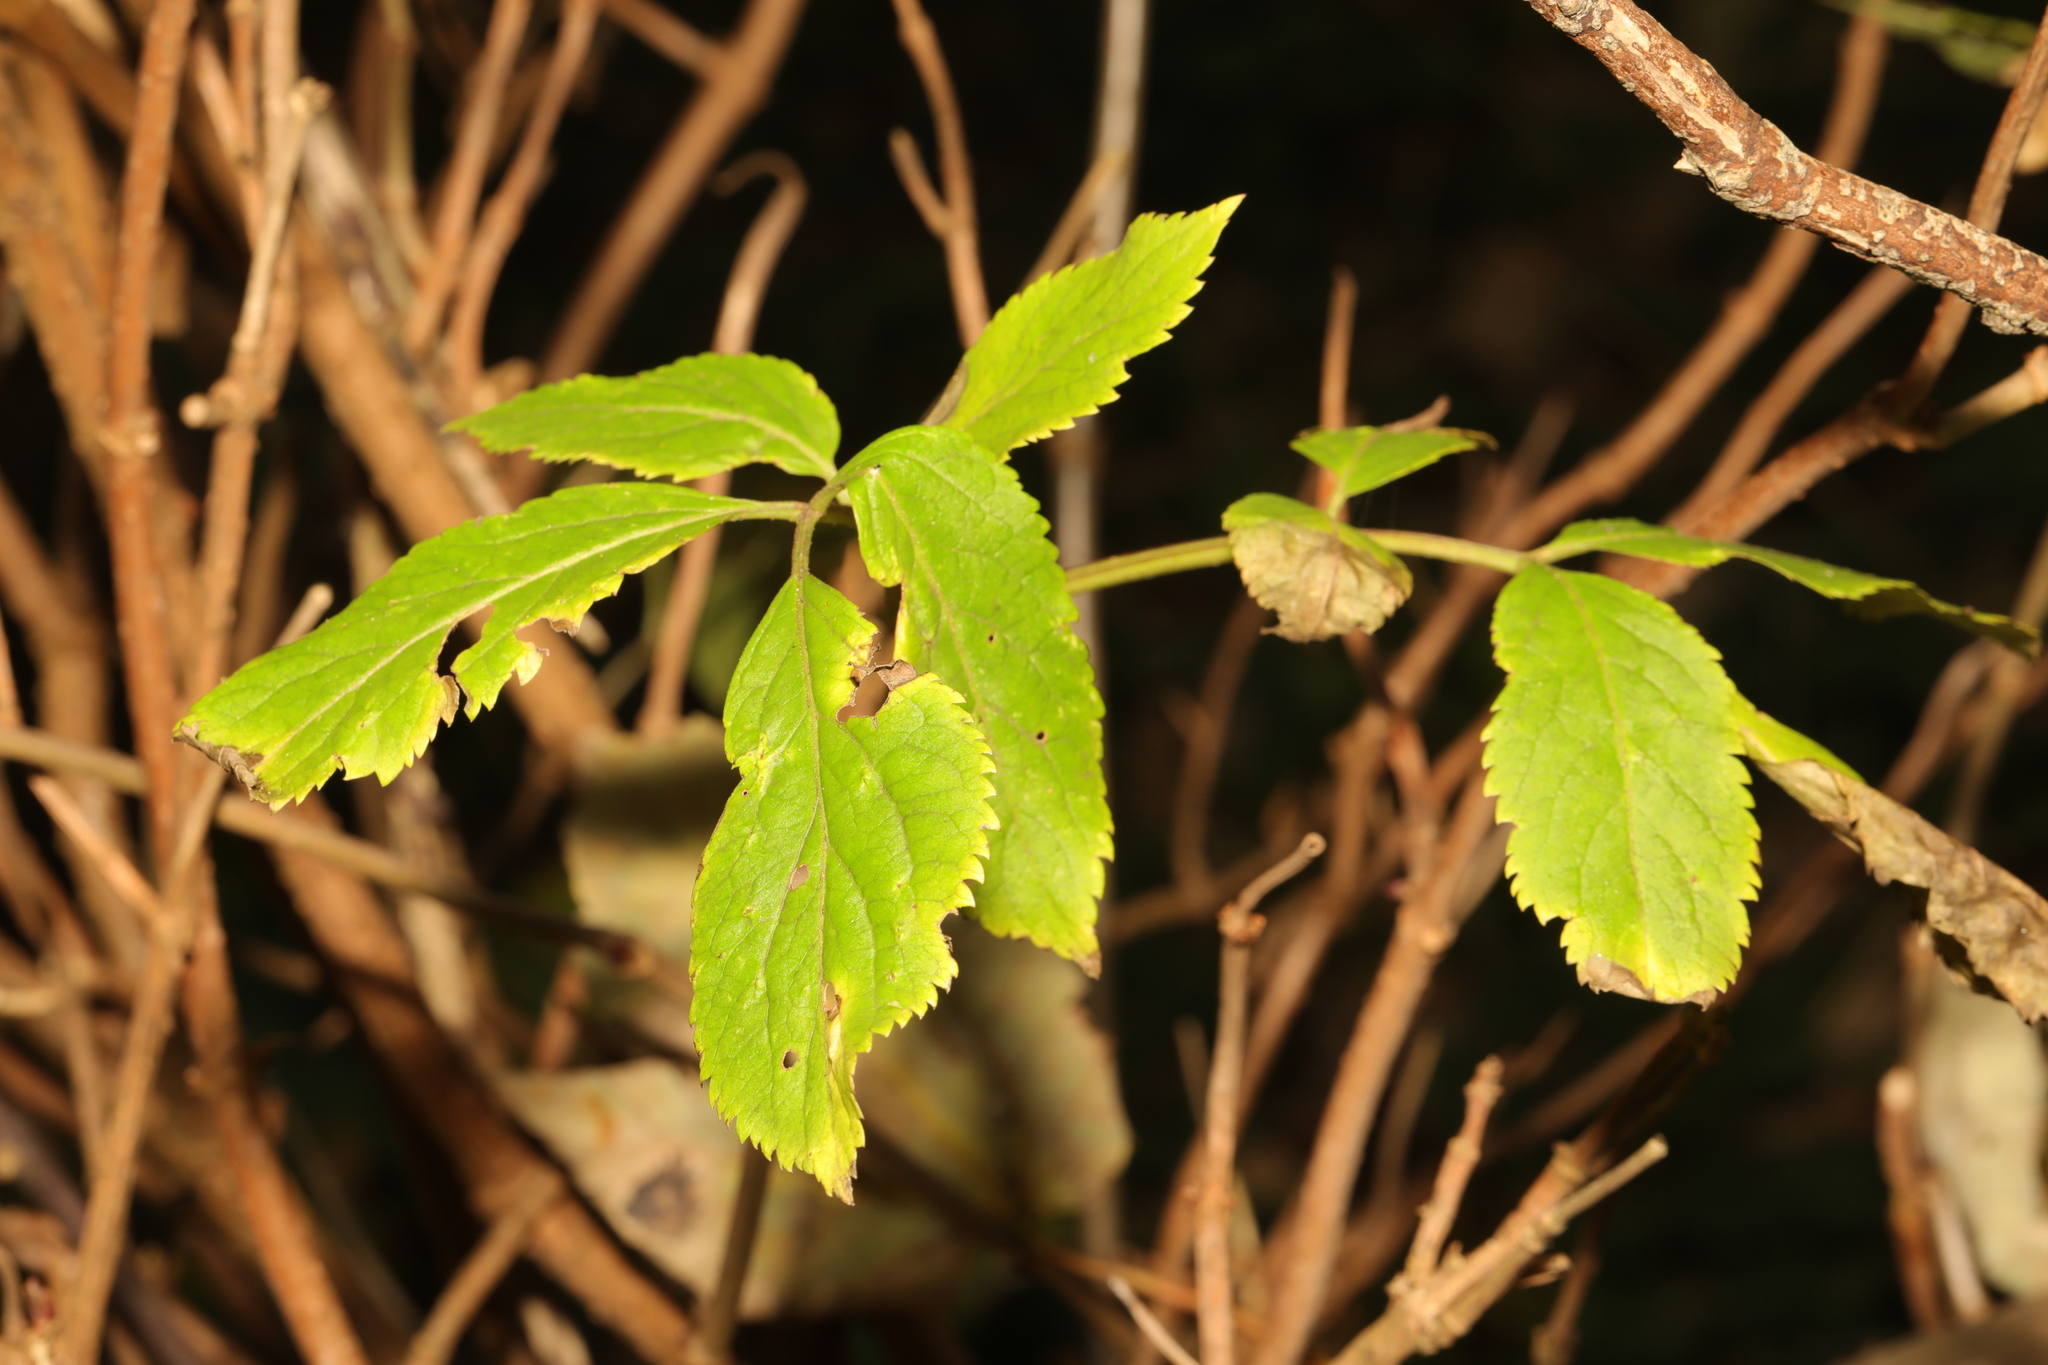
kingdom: Plantae
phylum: Tracheophyta
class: Magnoliopsida
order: Dipsacales
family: Viburnaceae
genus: Sambucus
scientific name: Sambucus nigra
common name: Elder
